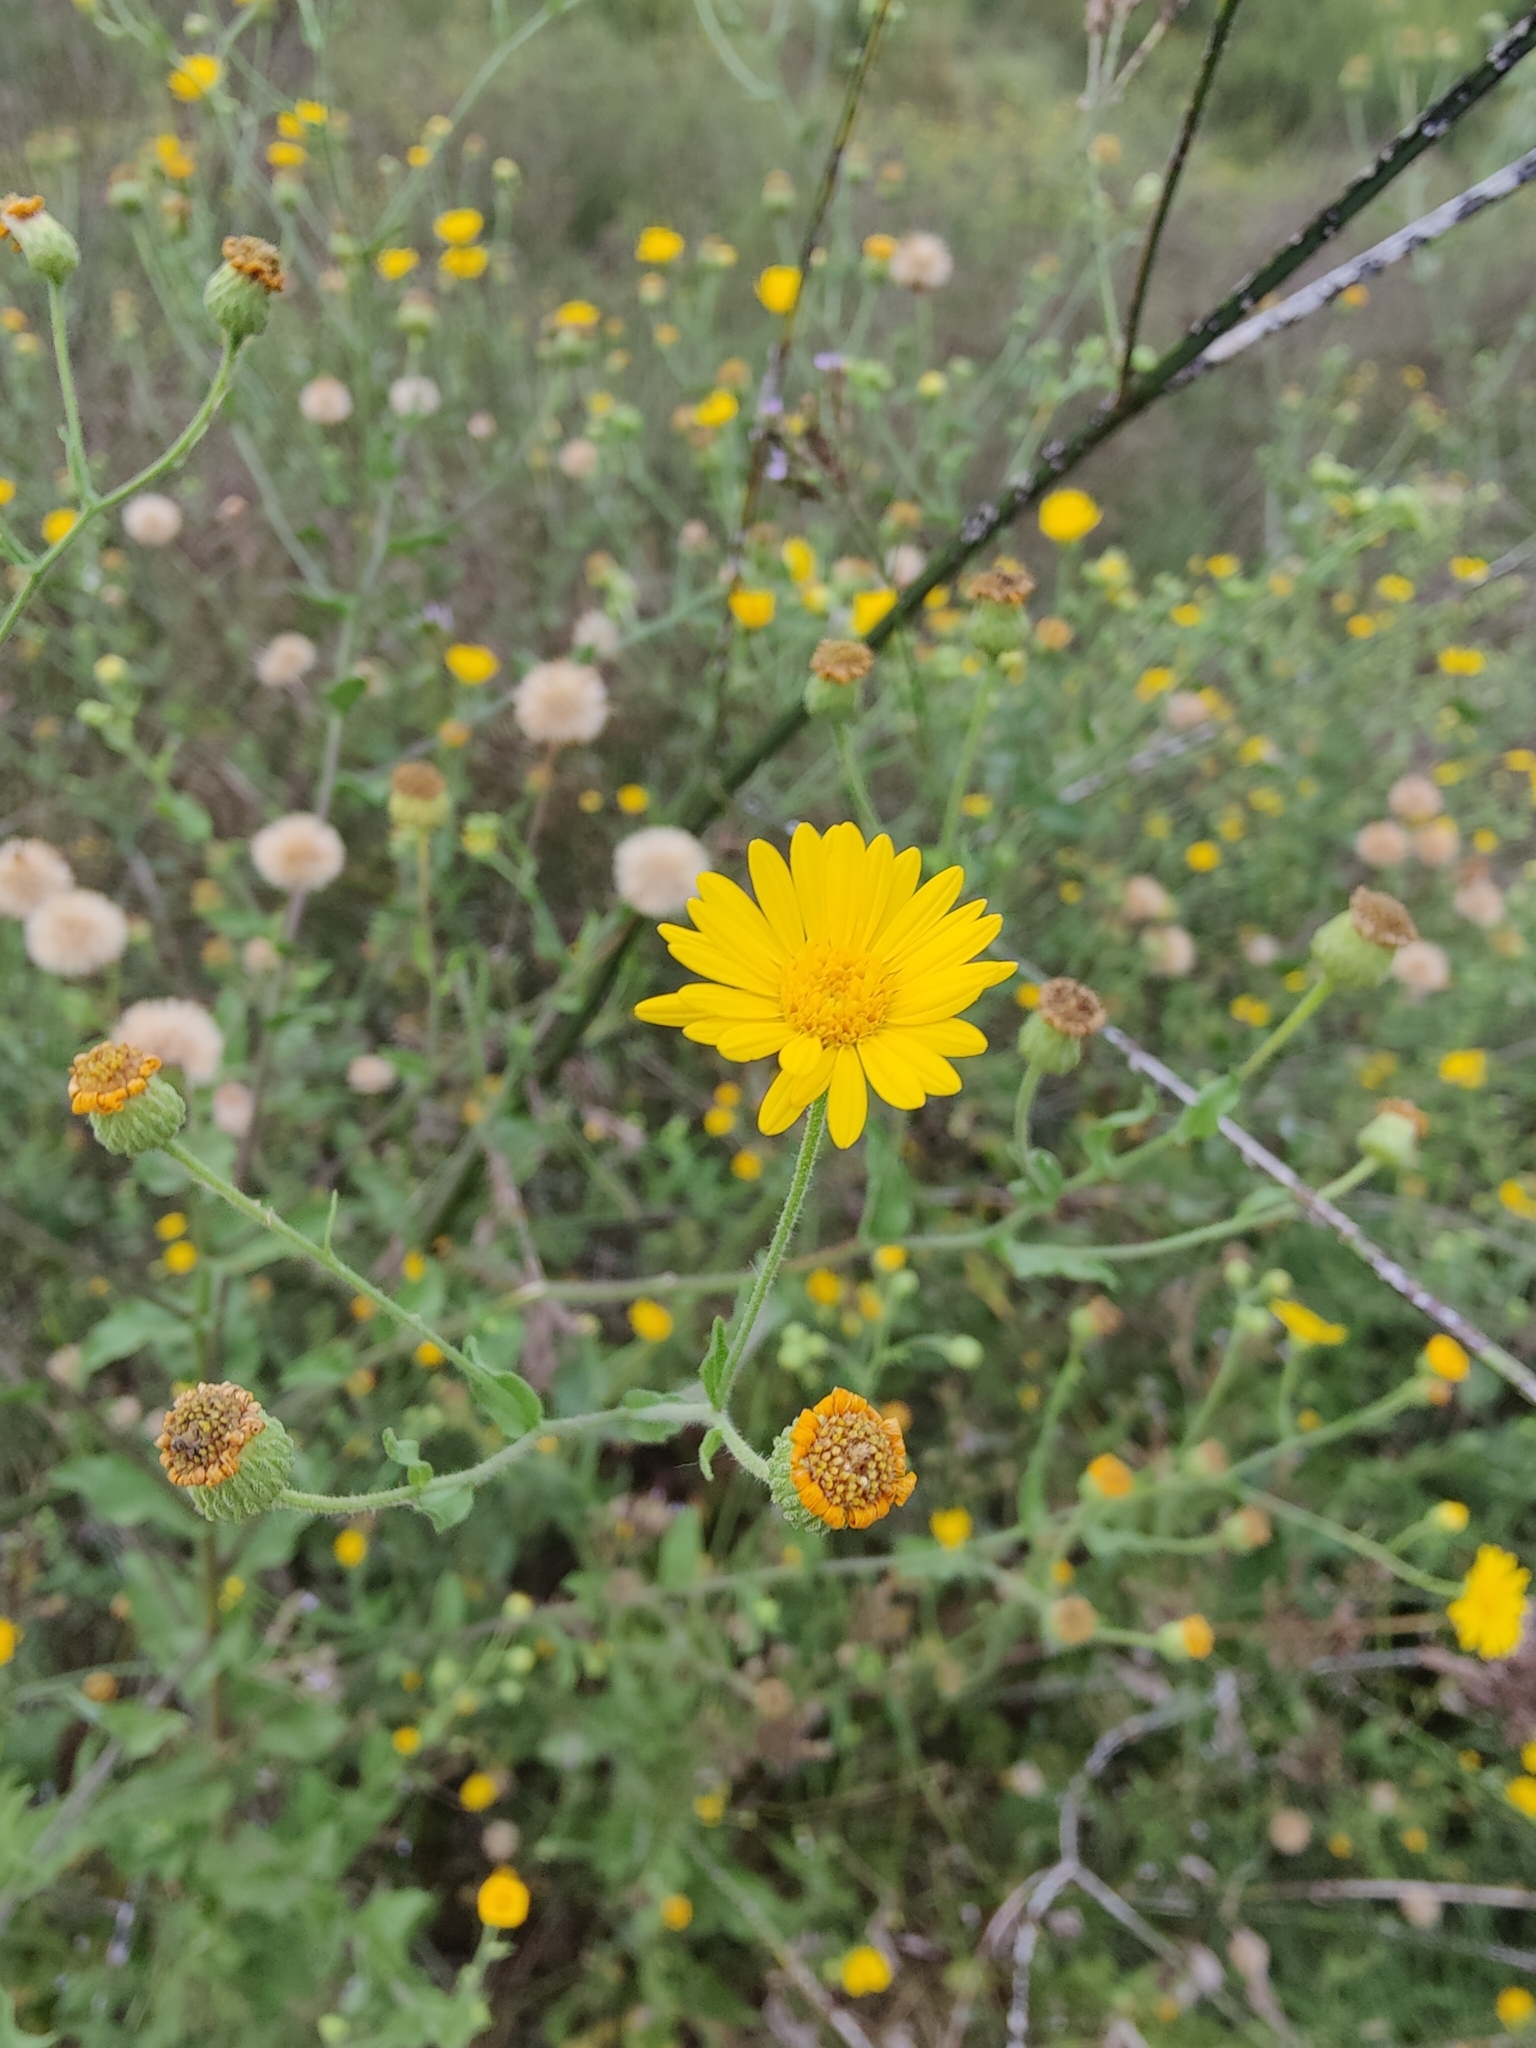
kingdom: Plantae
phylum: Tracheophyta
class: Magnoliopsida
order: Asterales
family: Asteraceae
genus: Heterotheca
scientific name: Heterotheca subaxillaris
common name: Camphorweed
